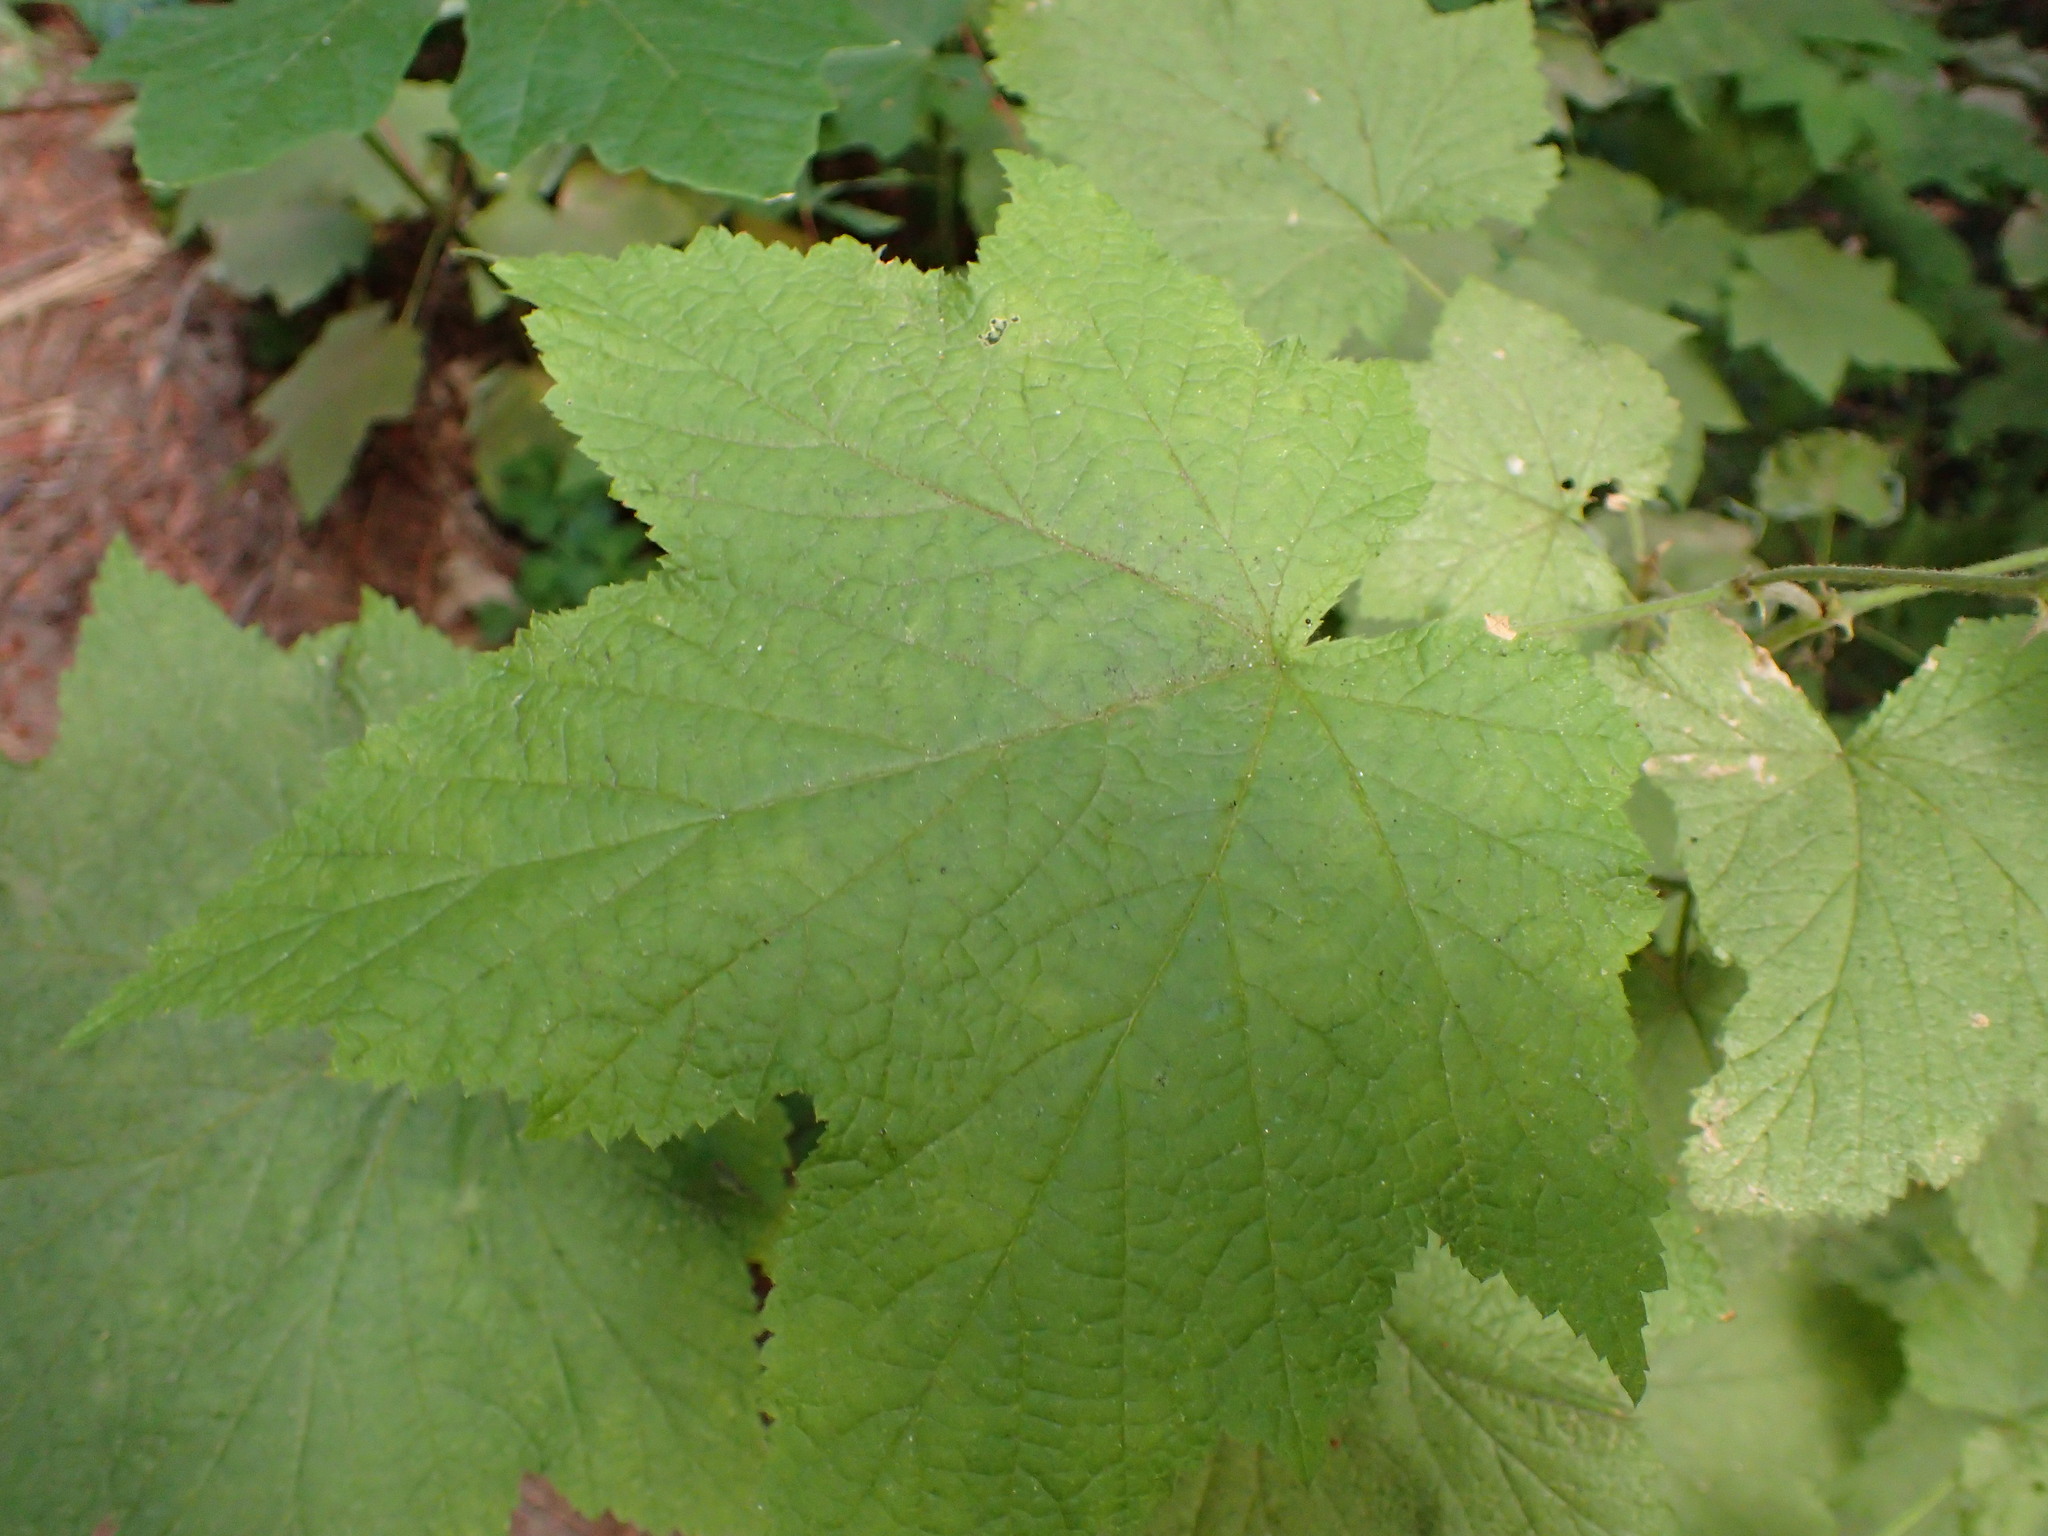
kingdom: Plantae
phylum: Tracheophyta
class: Magnoliopsida
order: Rosales
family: Rosaceae
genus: Rubus
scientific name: Rubus parviflorus
